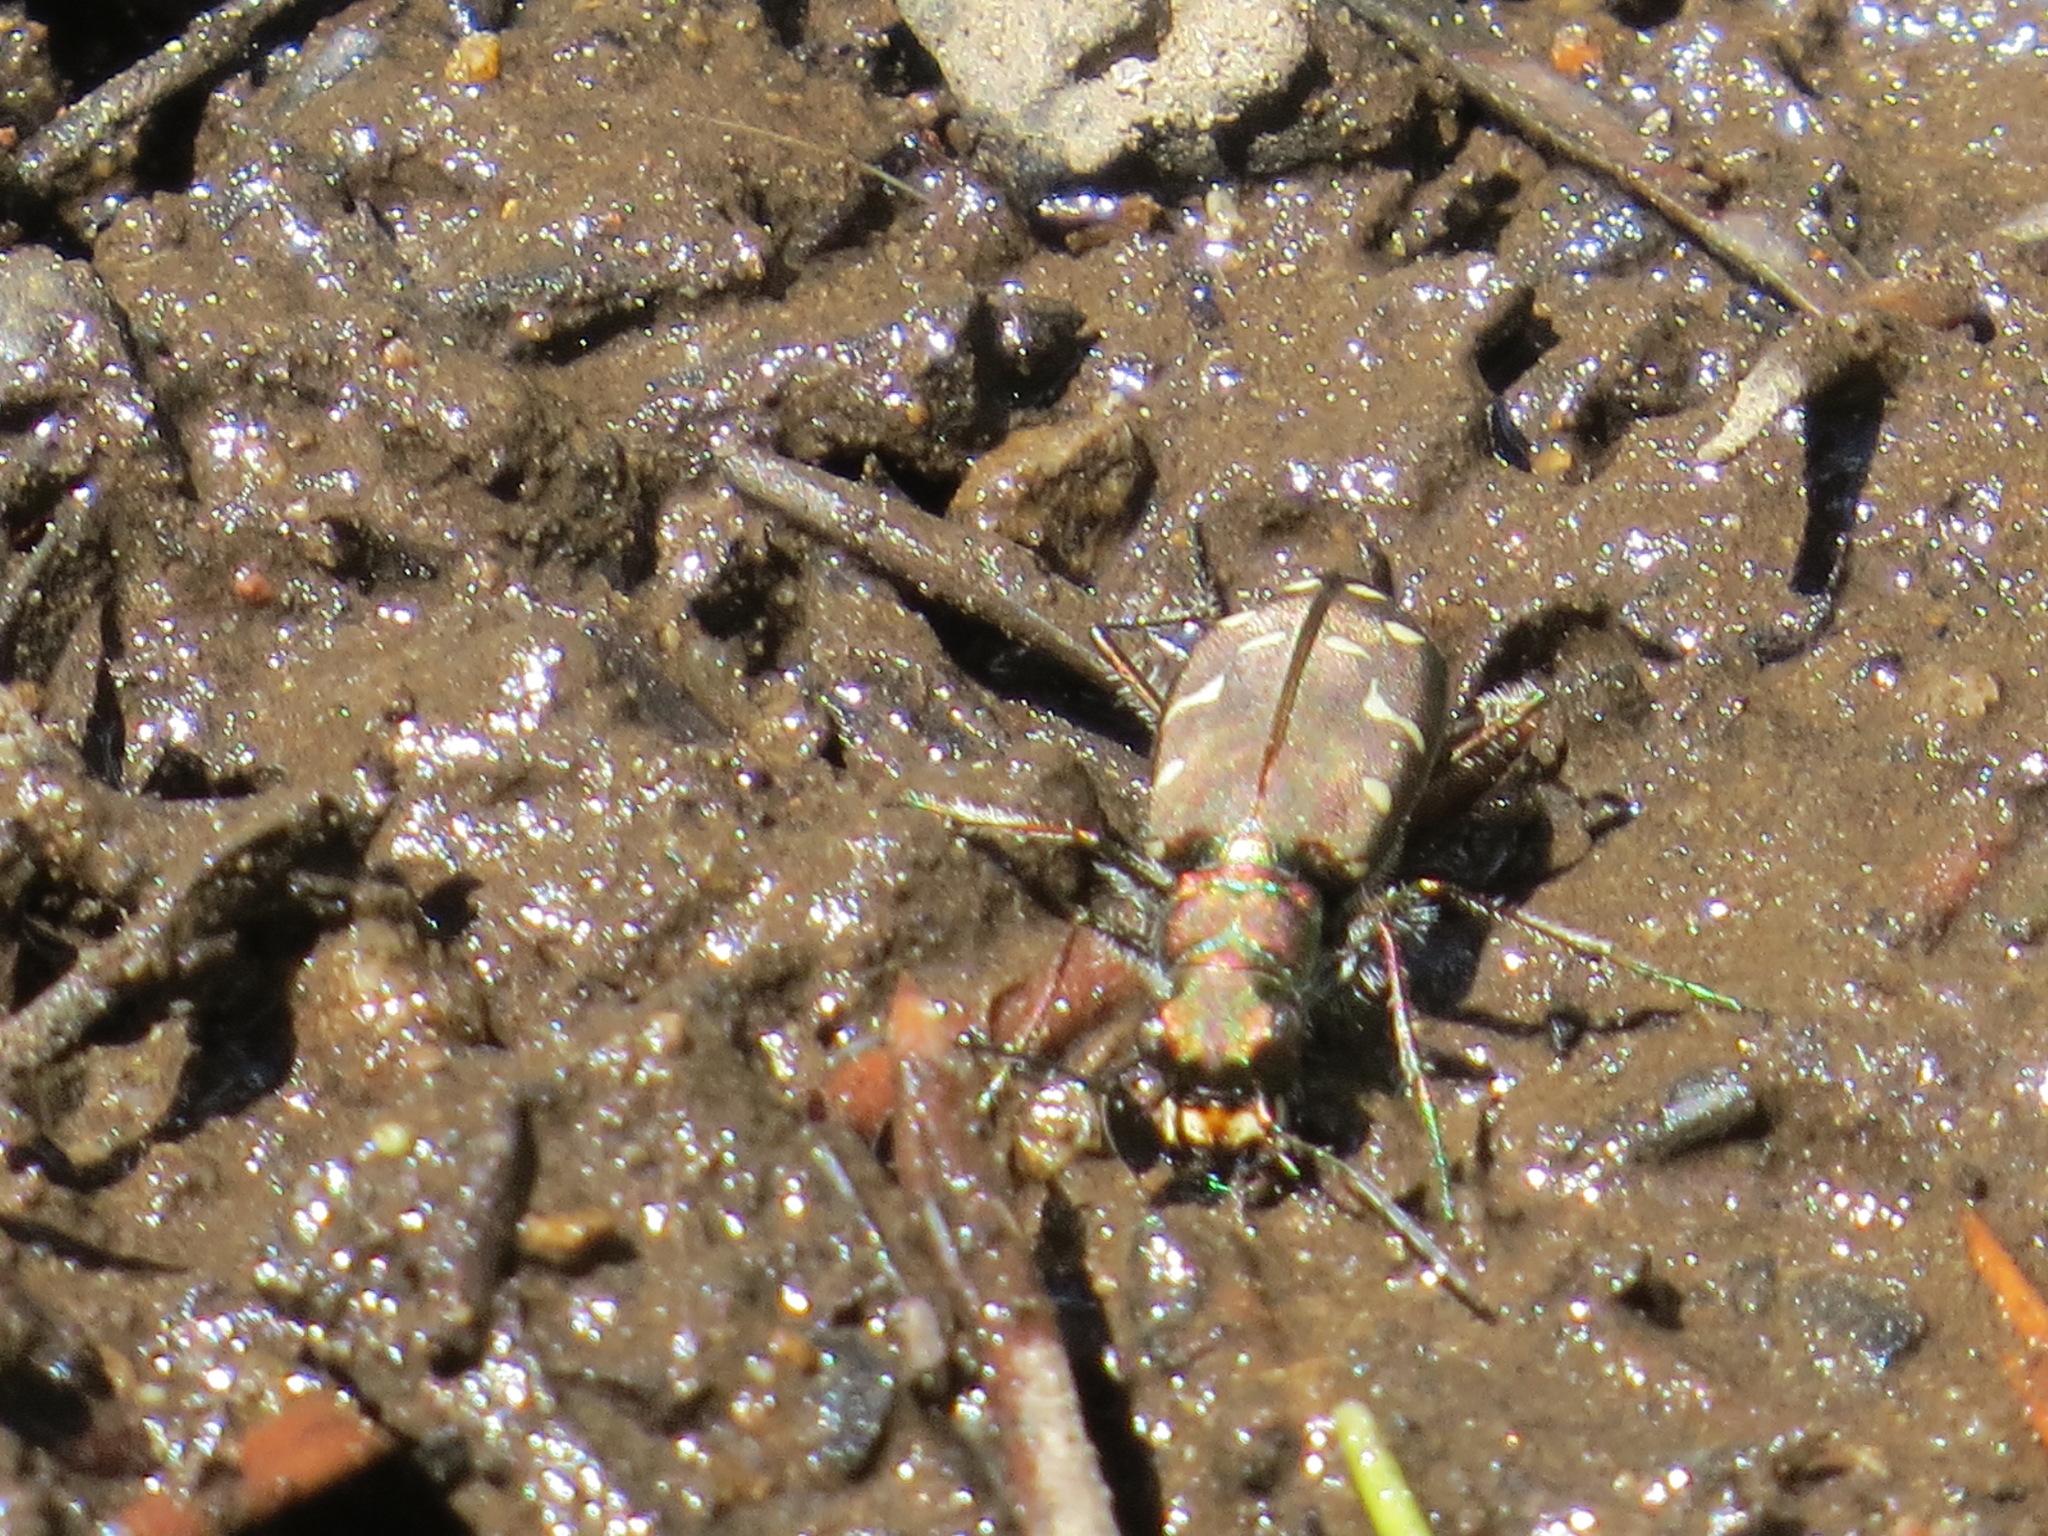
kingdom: Animalia
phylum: Arthropoda
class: Insecta
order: Coleoptera
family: Carabidae
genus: Cicindela
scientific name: Cicindela oregona
